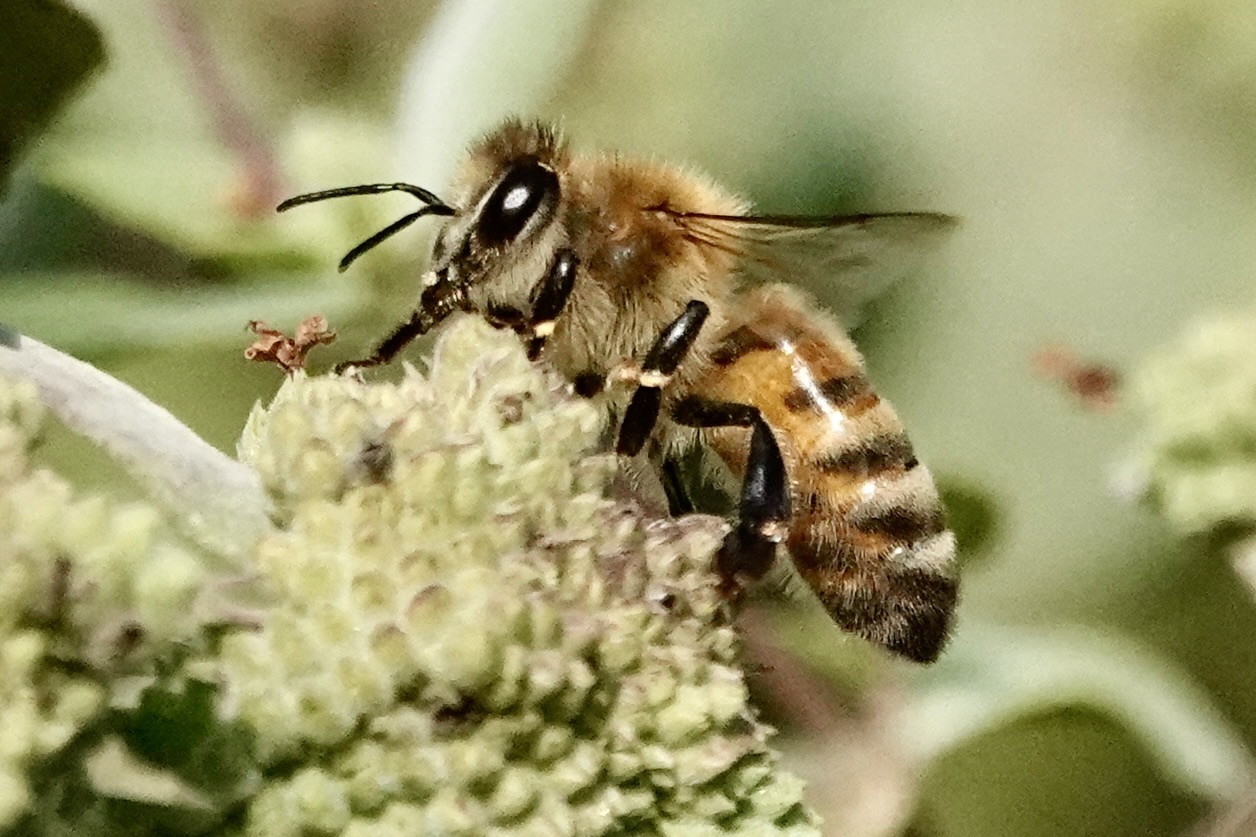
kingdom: Animalia
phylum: Arthropoda
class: Insecta
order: Hymenoptera
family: Apidae
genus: Apis
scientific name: Apis mellifera
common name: Honey bee
